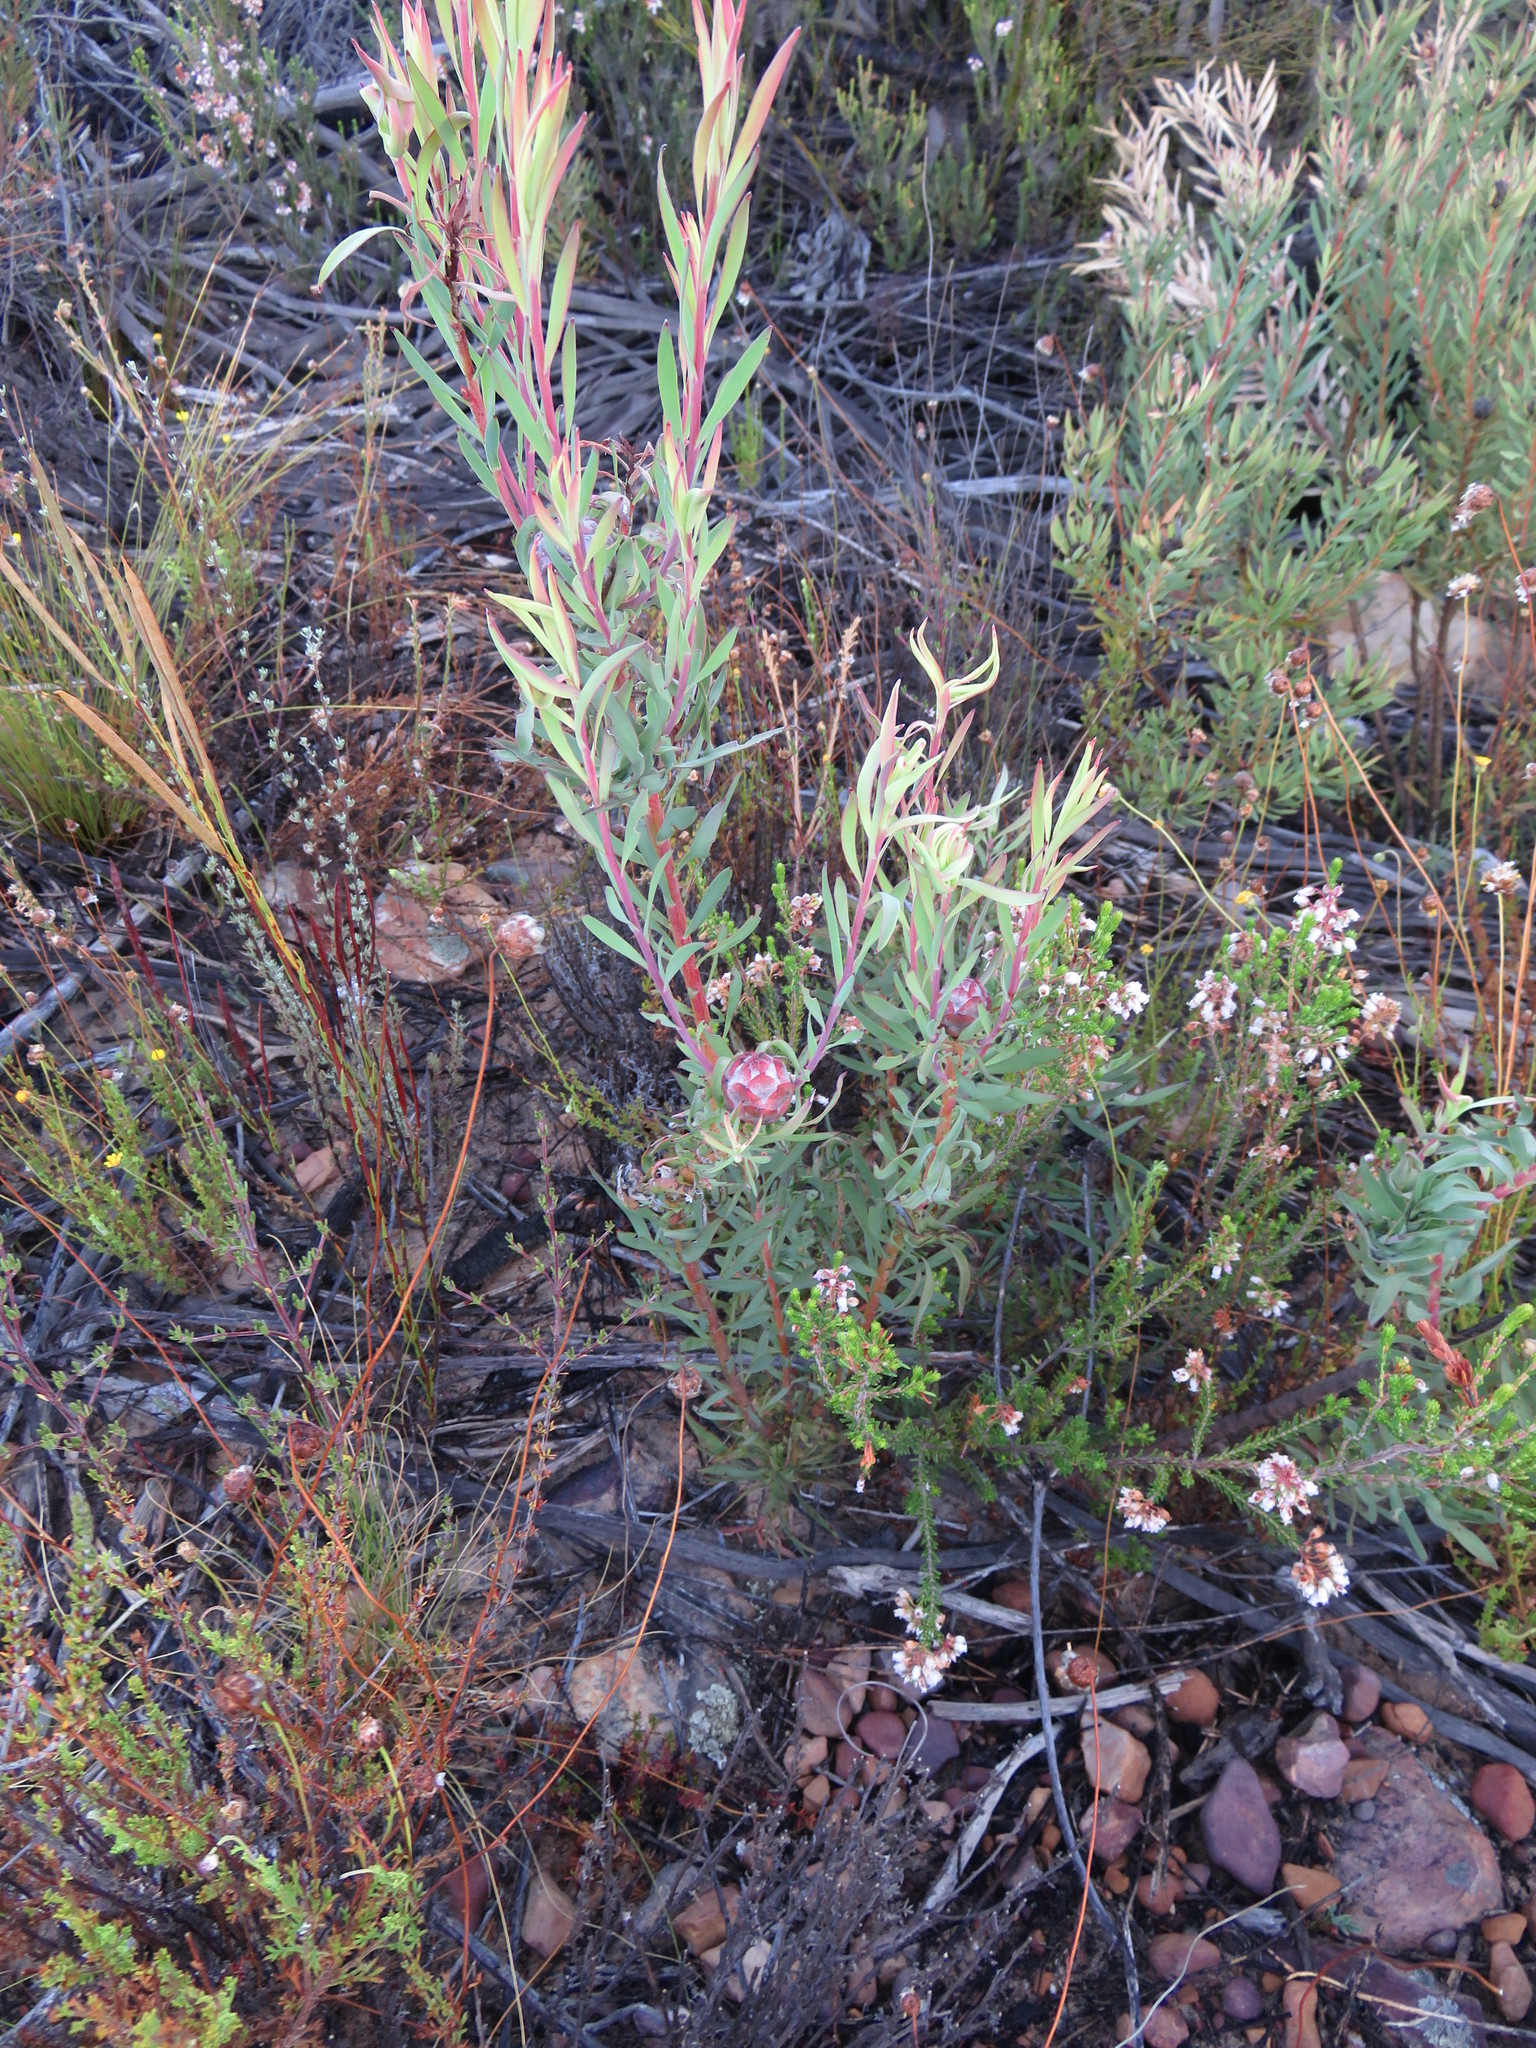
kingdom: Plantae
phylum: Tracheophyta
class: Magnoliopsida
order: Proteales
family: Proteaceae
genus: Leucadendron
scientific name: Leucadendron salignum
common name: Common sunshine conebush
